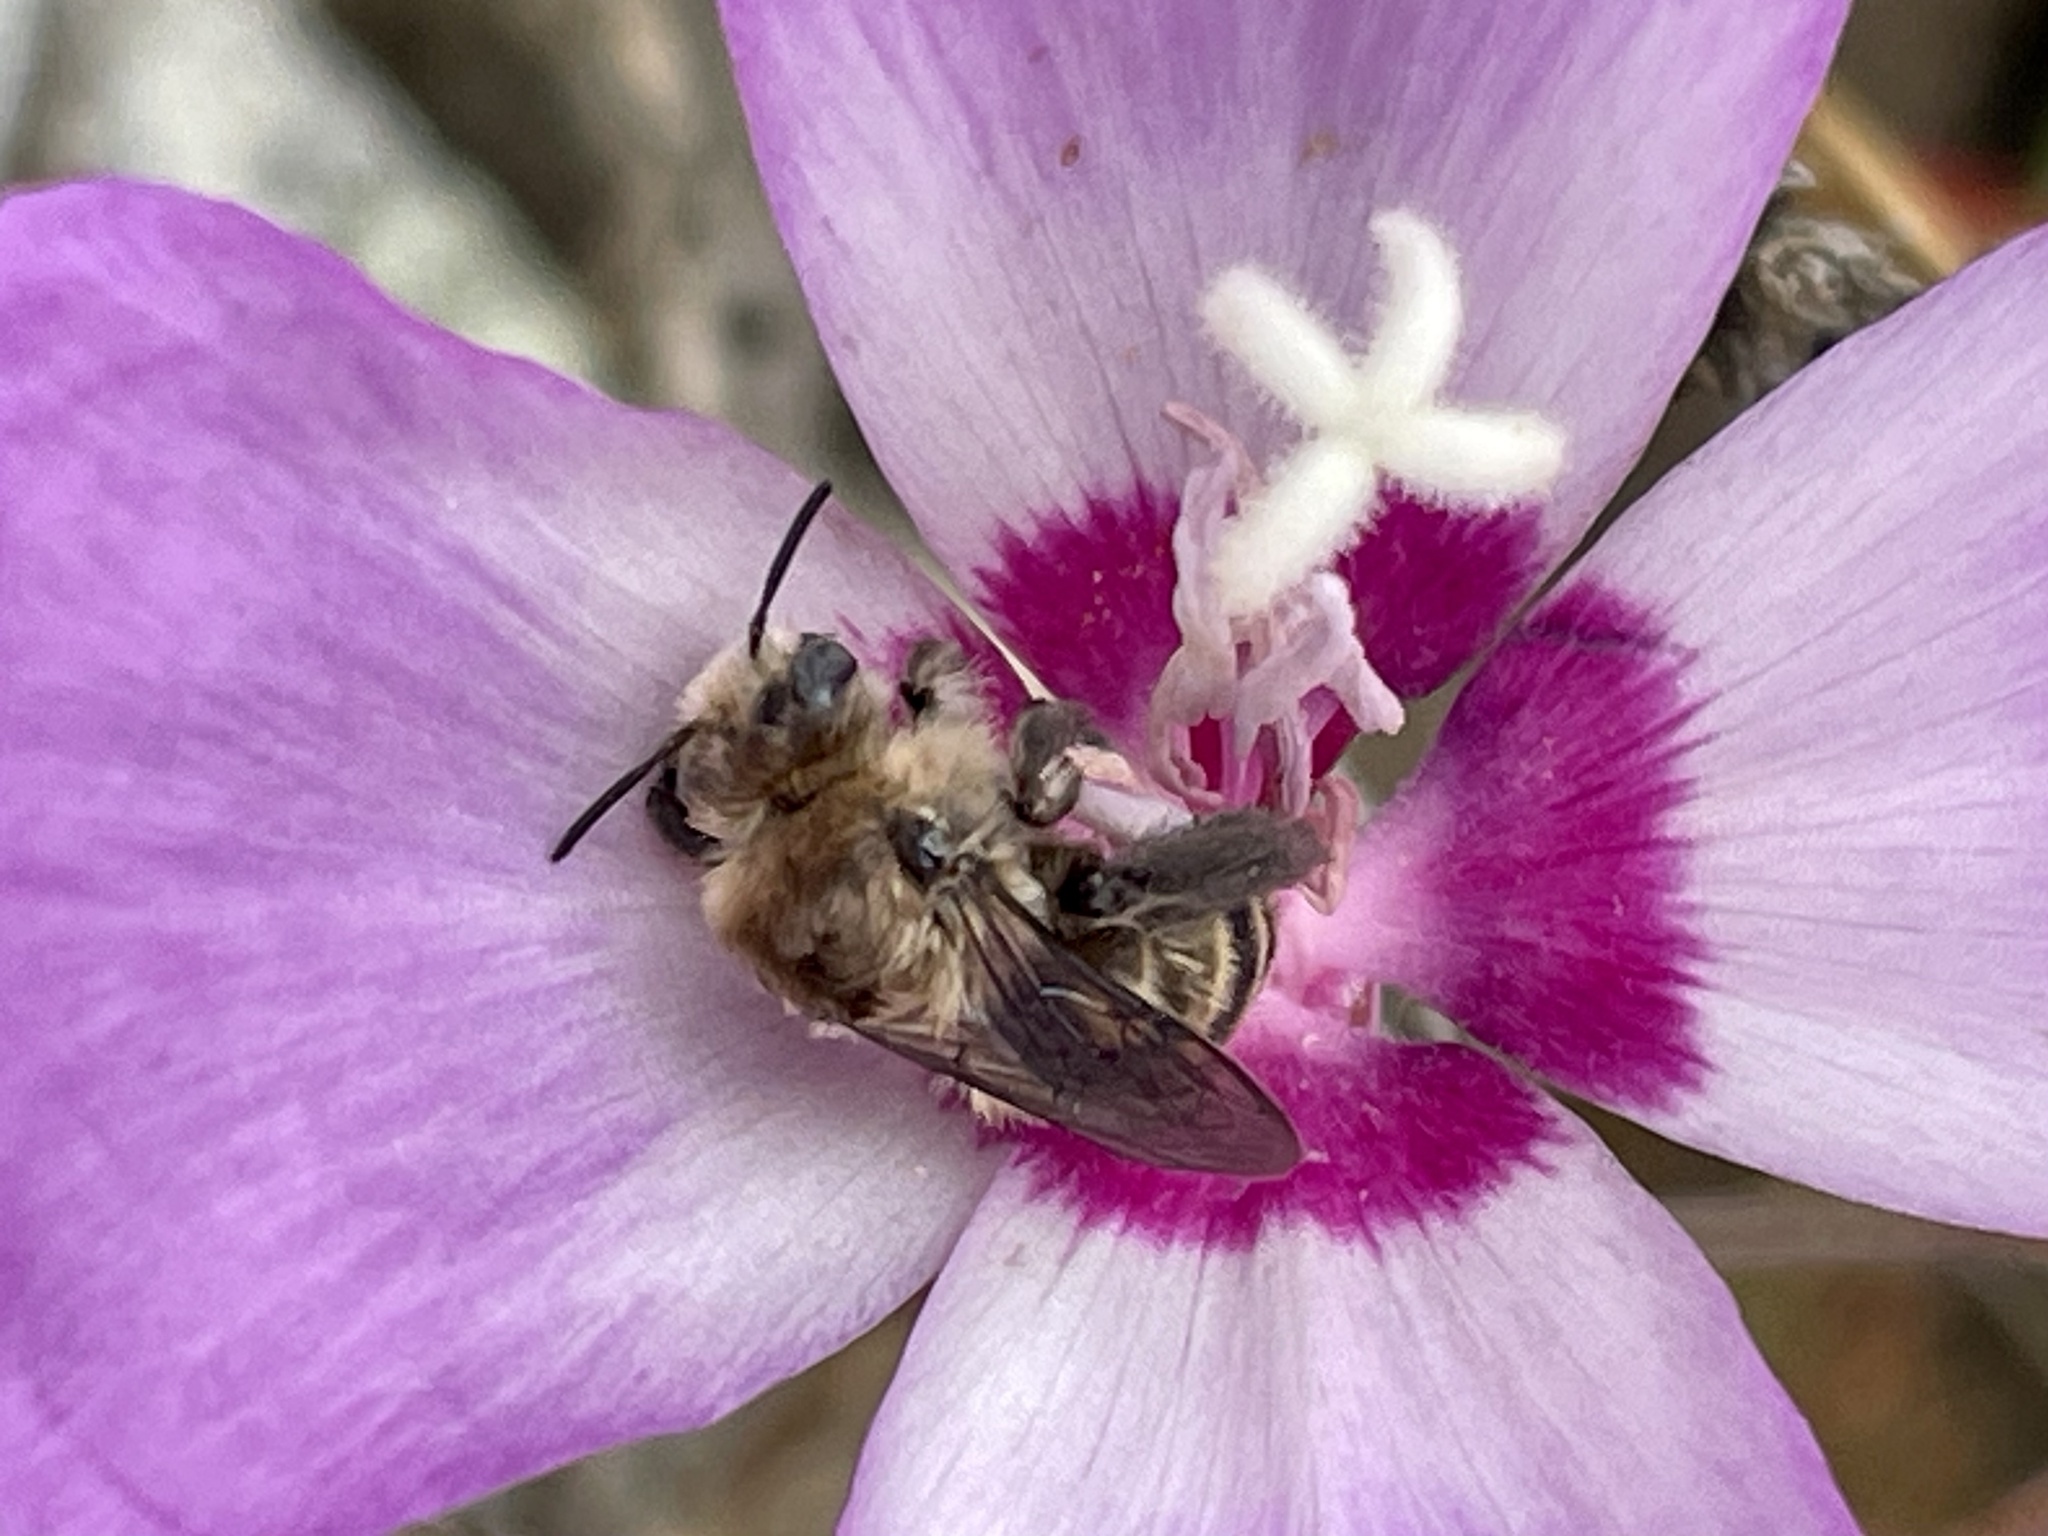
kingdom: Plantae
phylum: Tracheophyta
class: Magnoliopsida
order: Myrtales
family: Onagraceae
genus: Clarkia
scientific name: Clarkia lewisii
